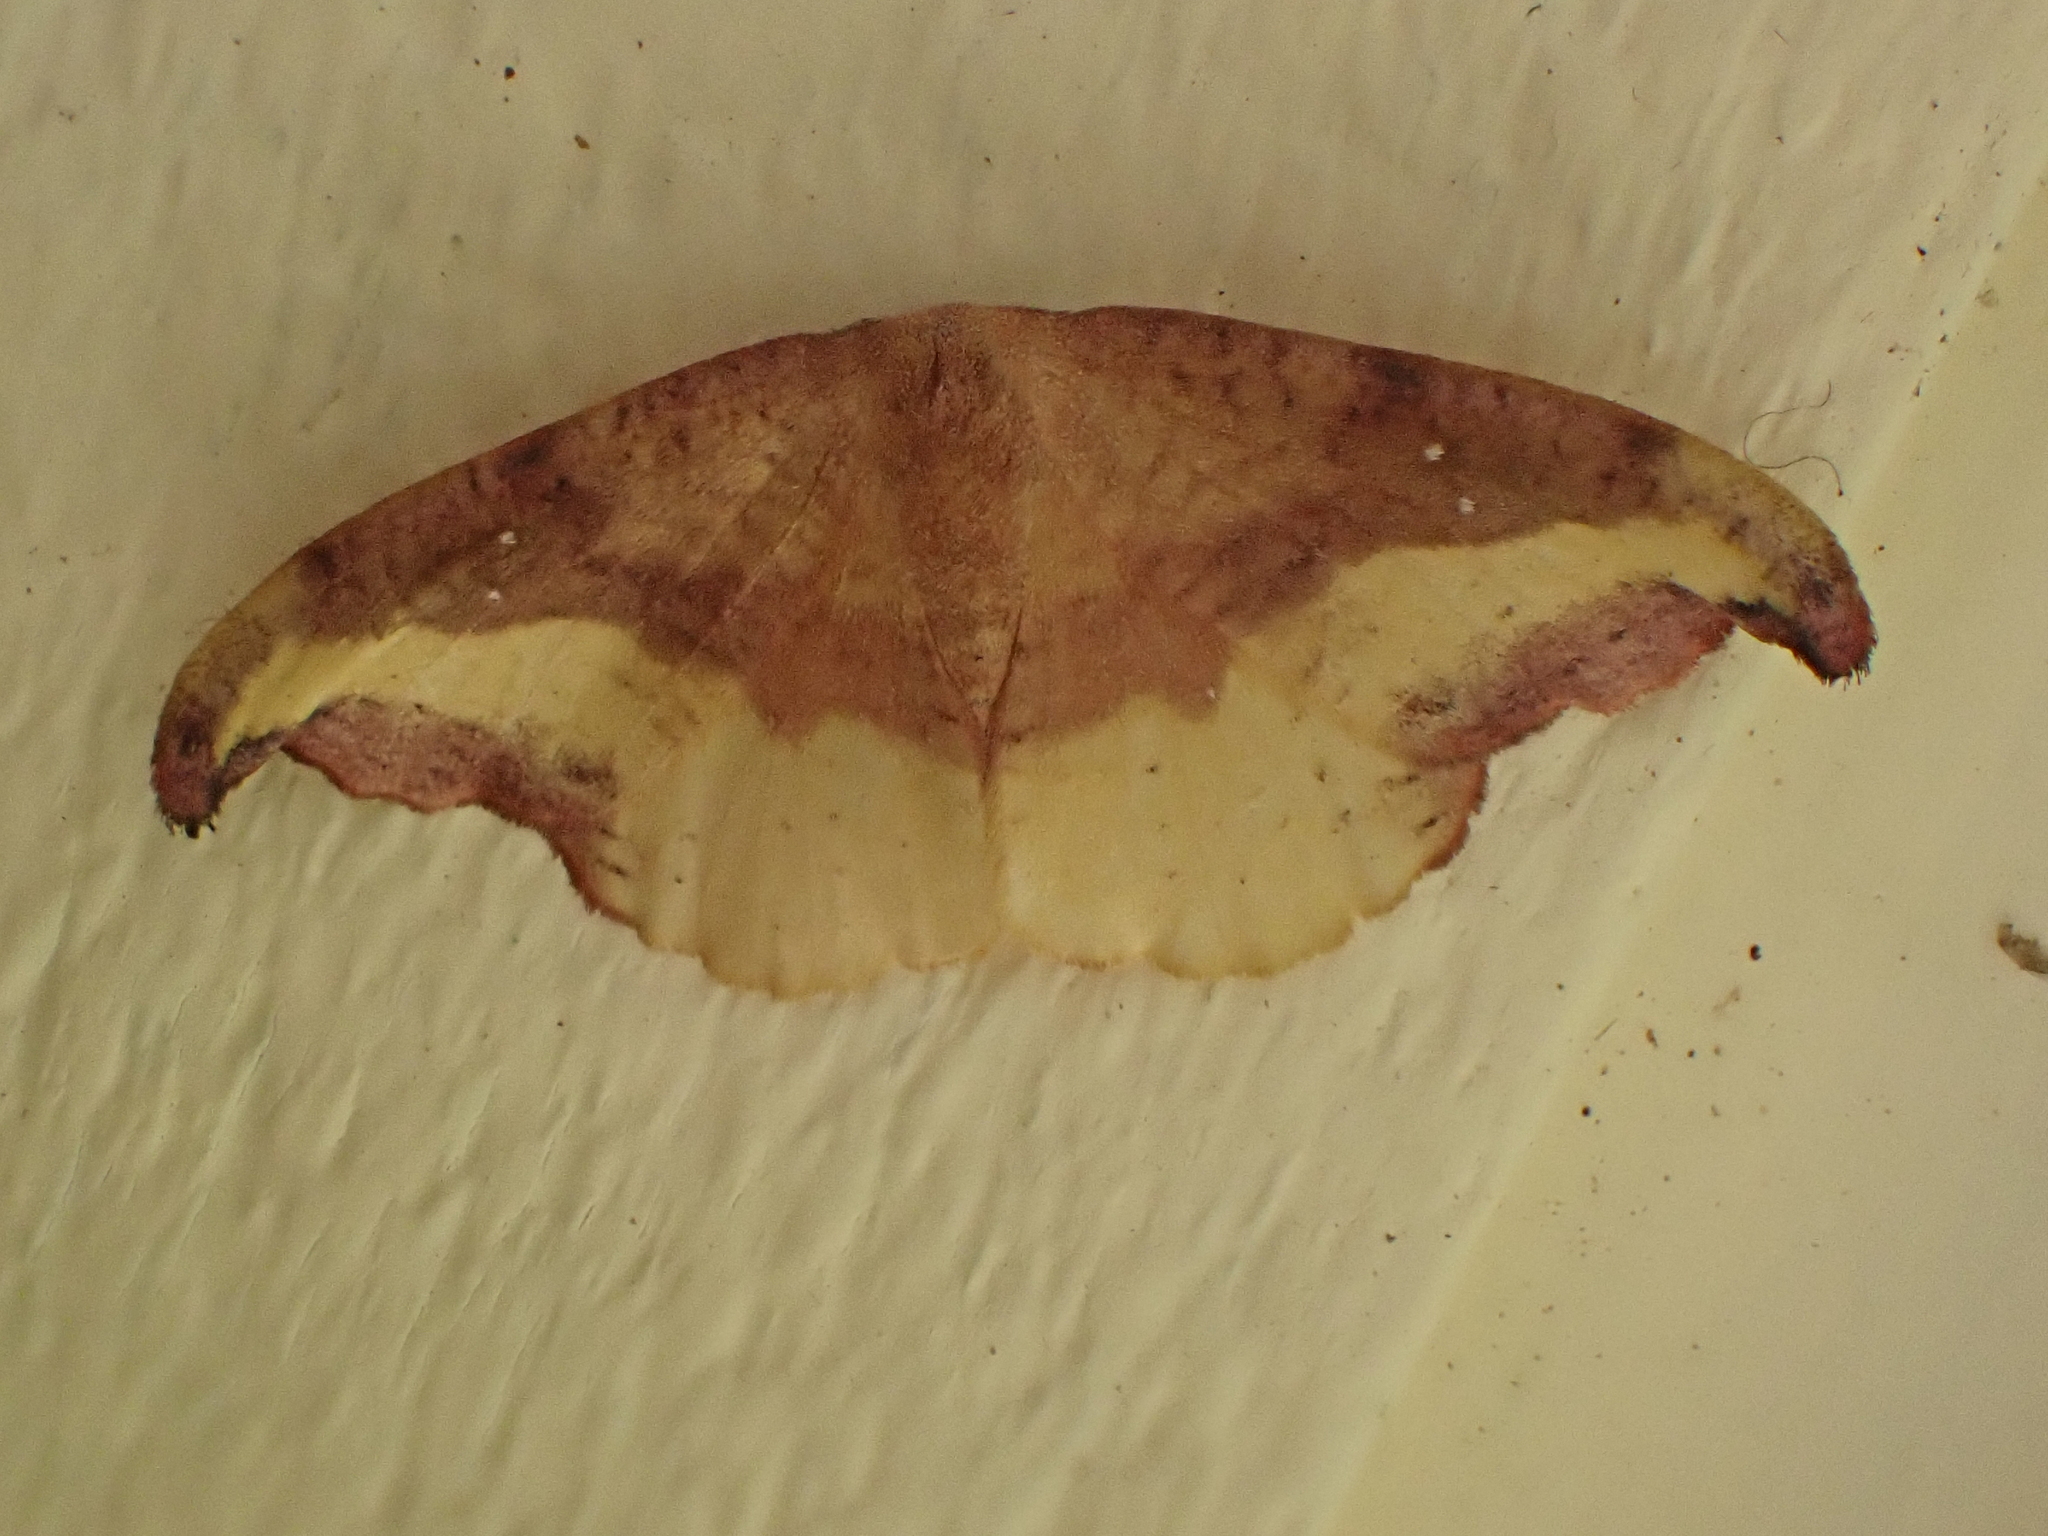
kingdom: Animalia
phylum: Arthropoda
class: Insecta
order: Lepidoptera
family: Drepanidae
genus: Oreta
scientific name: Oreta rosea
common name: Rose hooktip
